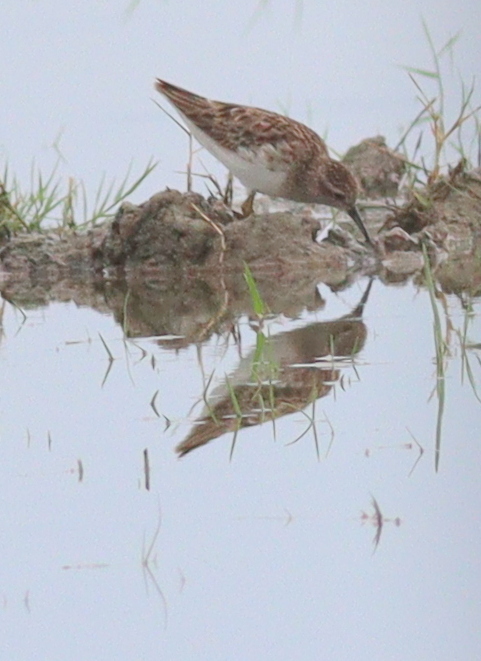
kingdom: Animalia
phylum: Chordata
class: Aves
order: Charadriiformes
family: Scolopacidae
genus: Calidris
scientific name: Calidris subminuta
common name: Long-toed stint
